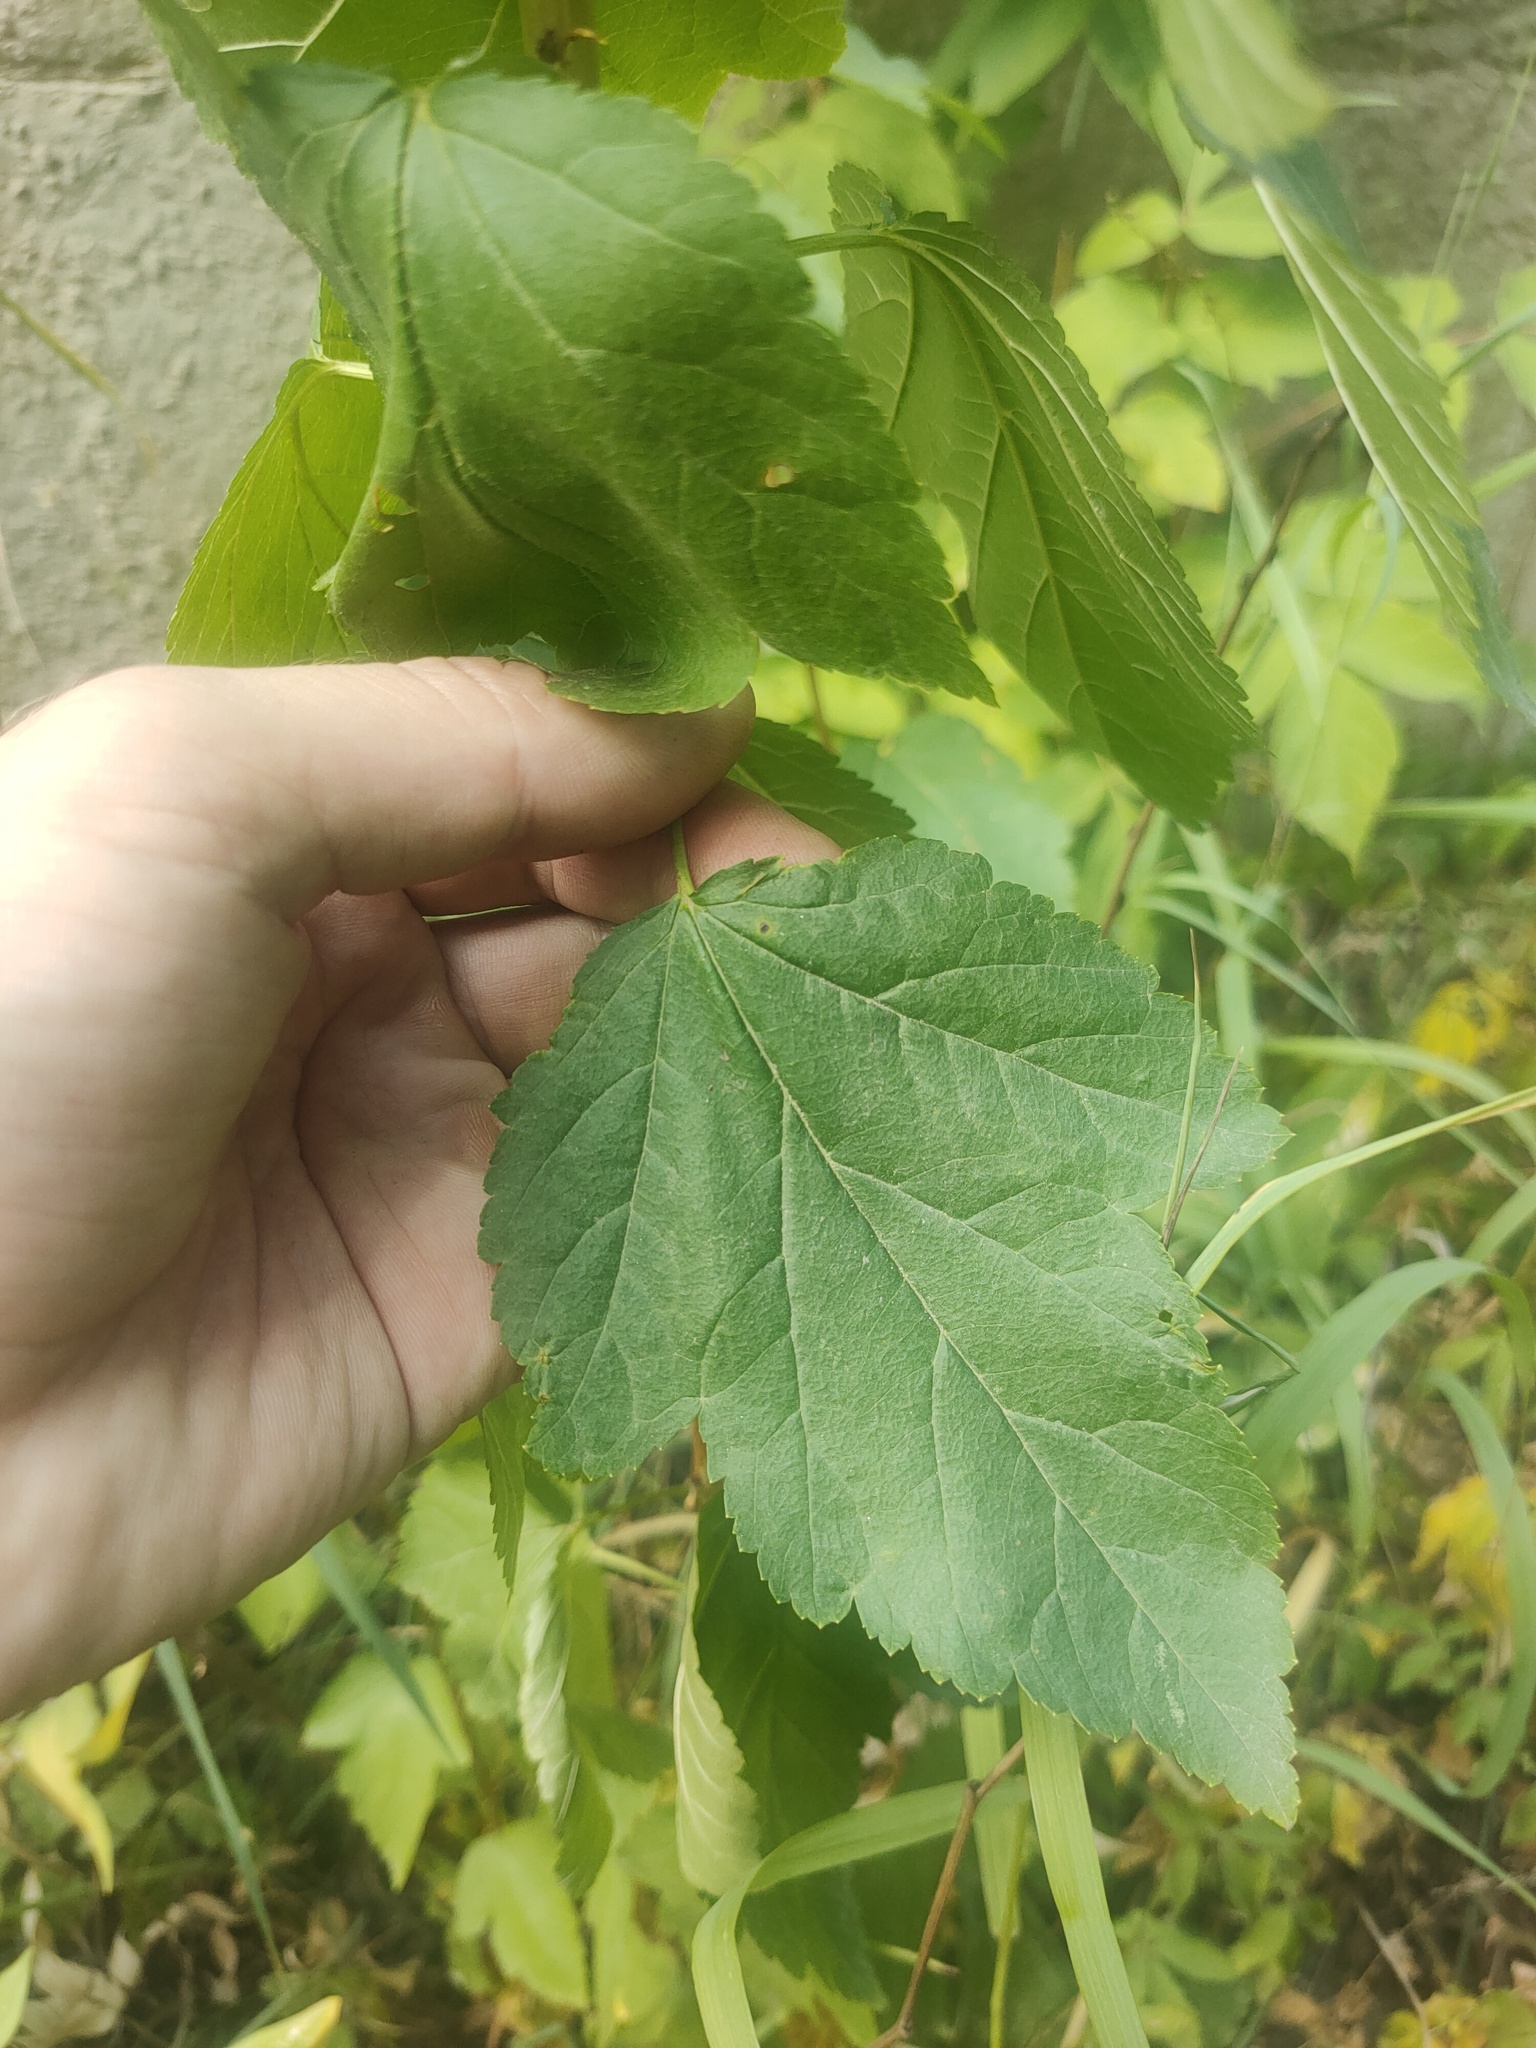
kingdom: Plantae
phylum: Tracheophyta
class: Magnoliopsida
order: Rosales
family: Rosaceae
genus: Physocarpus
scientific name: Physocarpus opulifolius
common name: Ninebark
